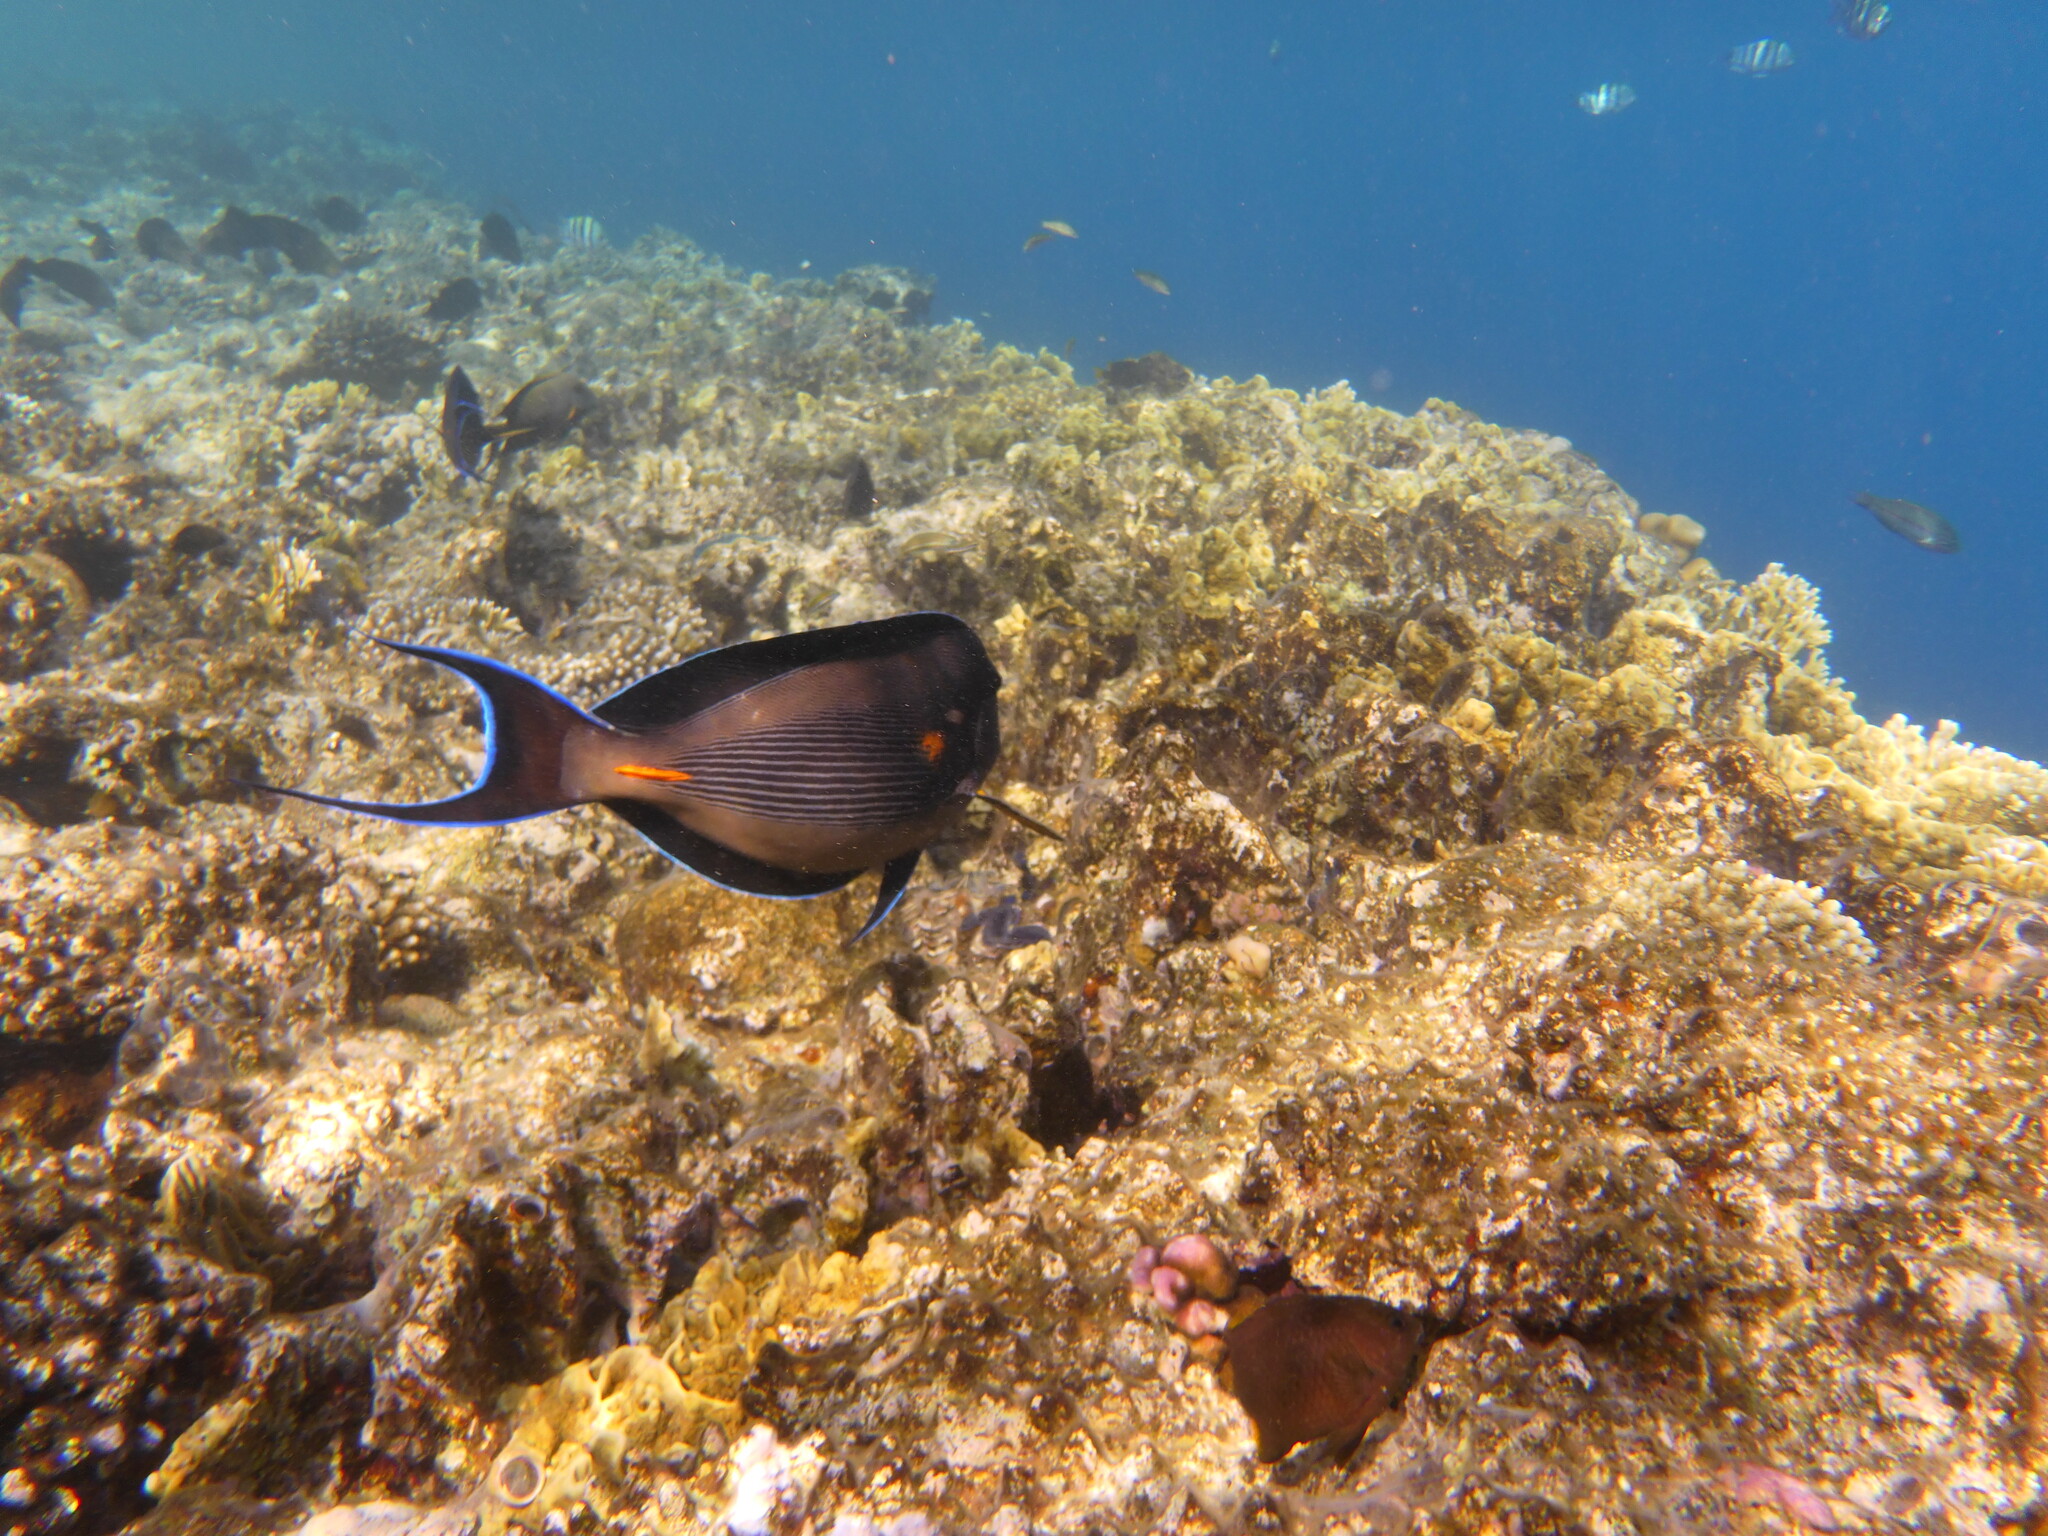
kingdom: Animalia
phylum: Chordata
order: Perciformes
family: Acanthuridae
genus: Acanthurus
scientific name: Acanthurus sohal
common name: Red sea surgeonfish
